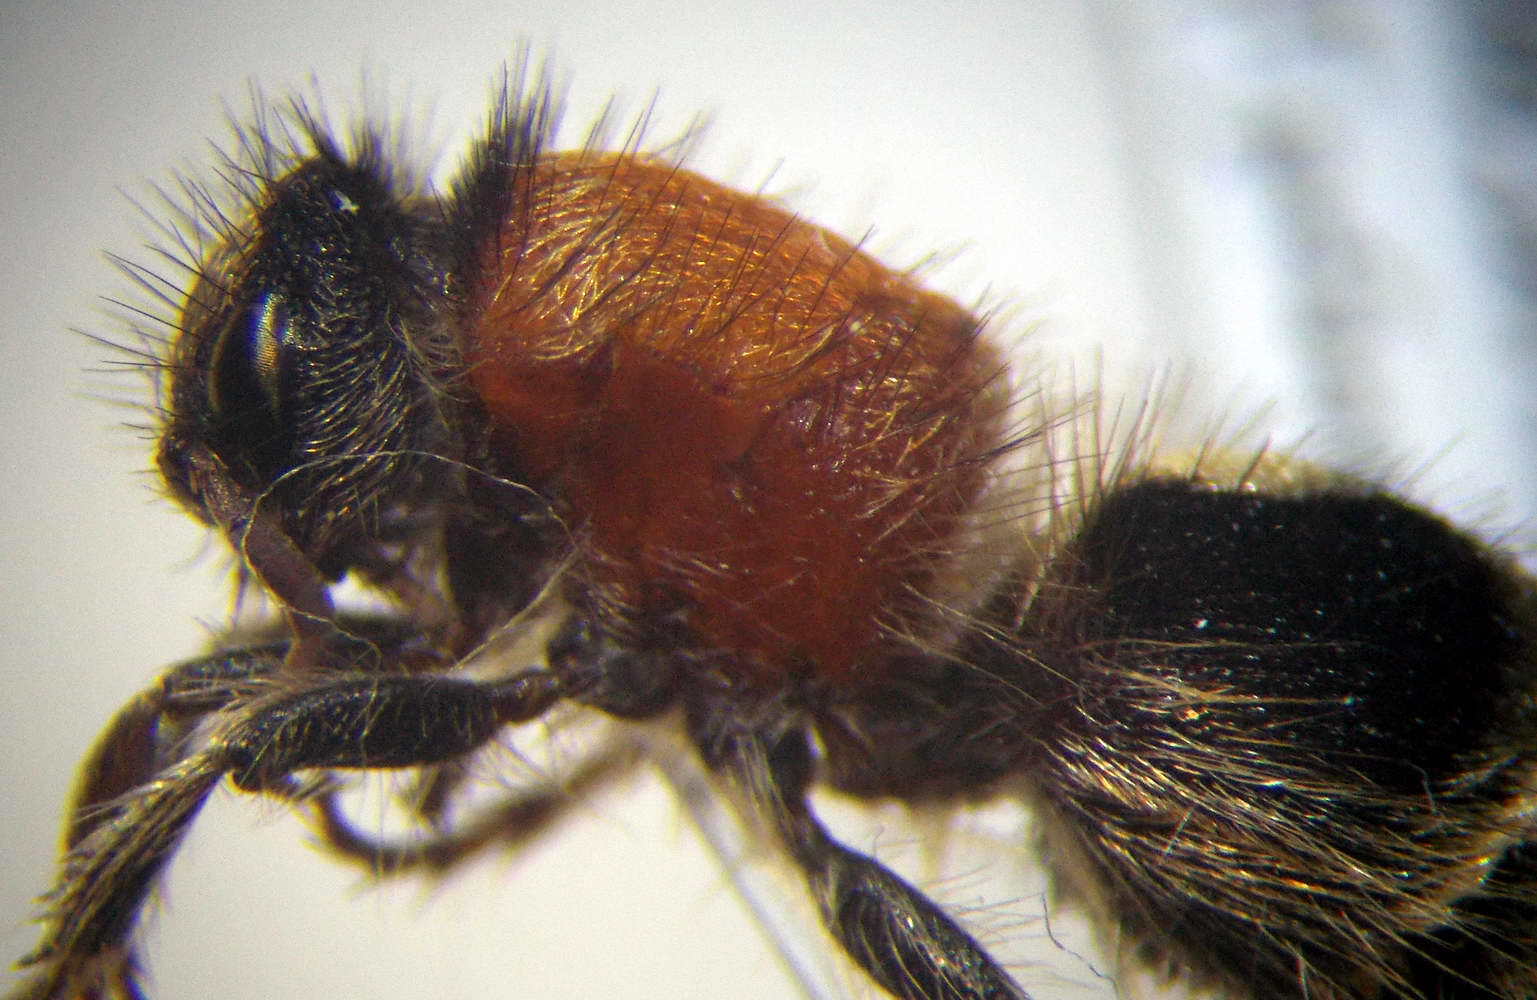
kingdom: Animalia
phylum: Arthropoda
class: Insecta
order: Hymenoptera
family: Mutillidae
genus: Nemka
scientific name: Nemka viduata
